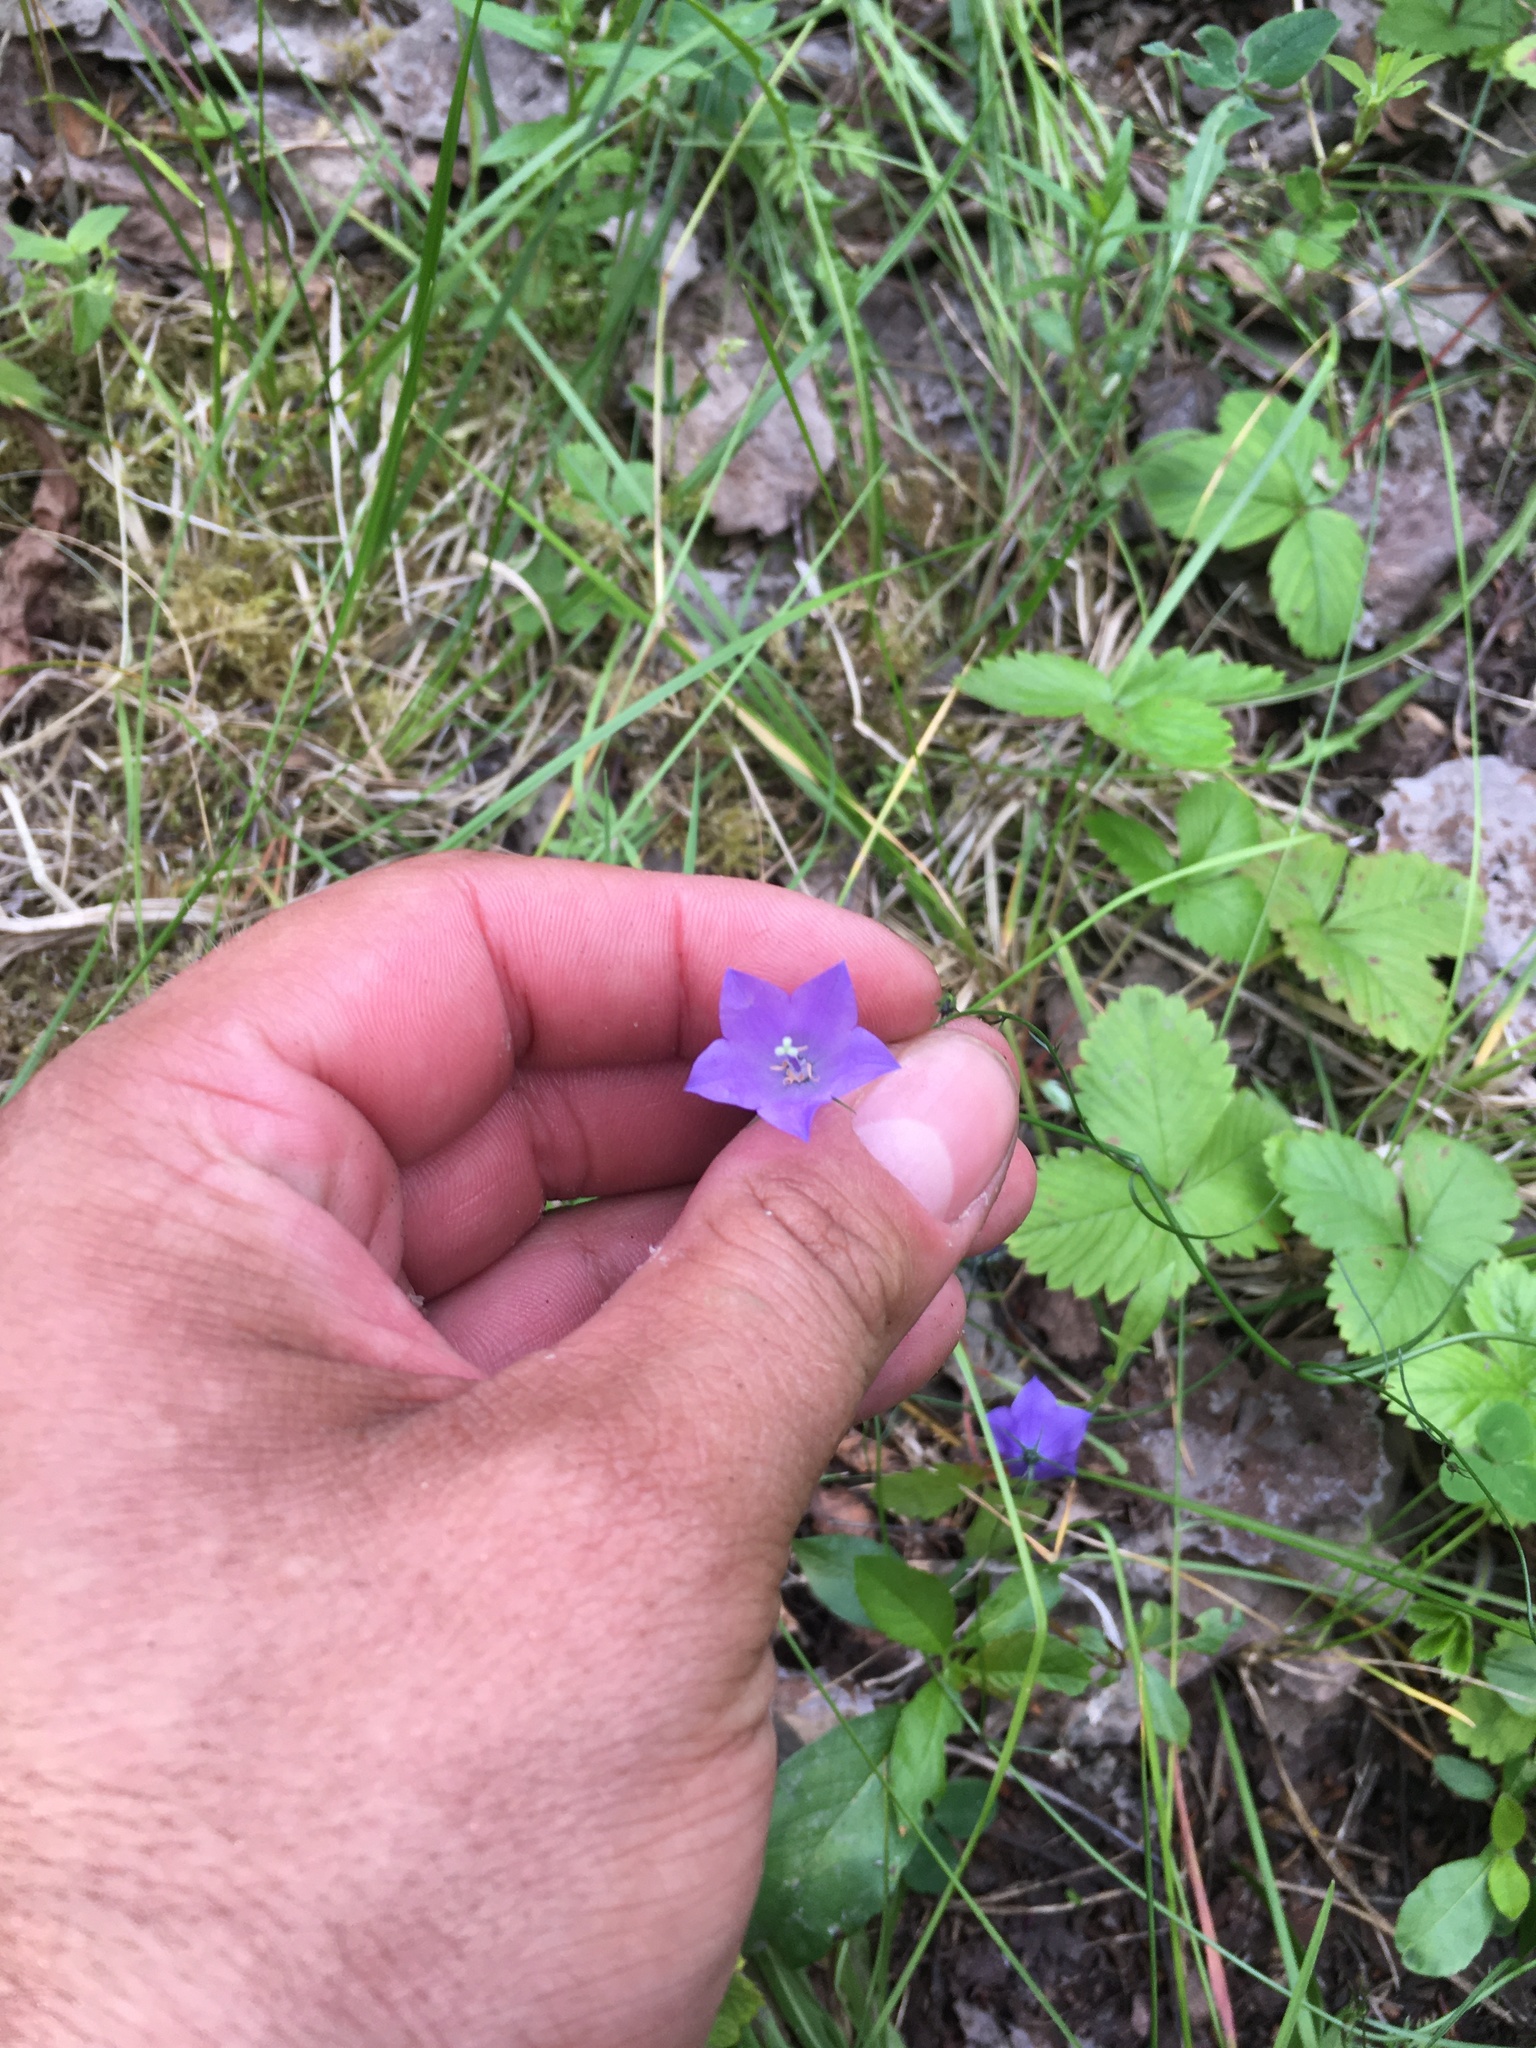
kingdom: Plantae
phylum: Tracheophyta
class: Magnoliopsida
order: Asterales
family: Campanulaceae
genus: Campanula
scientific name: Campanula rotundifolia
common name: Harebell
